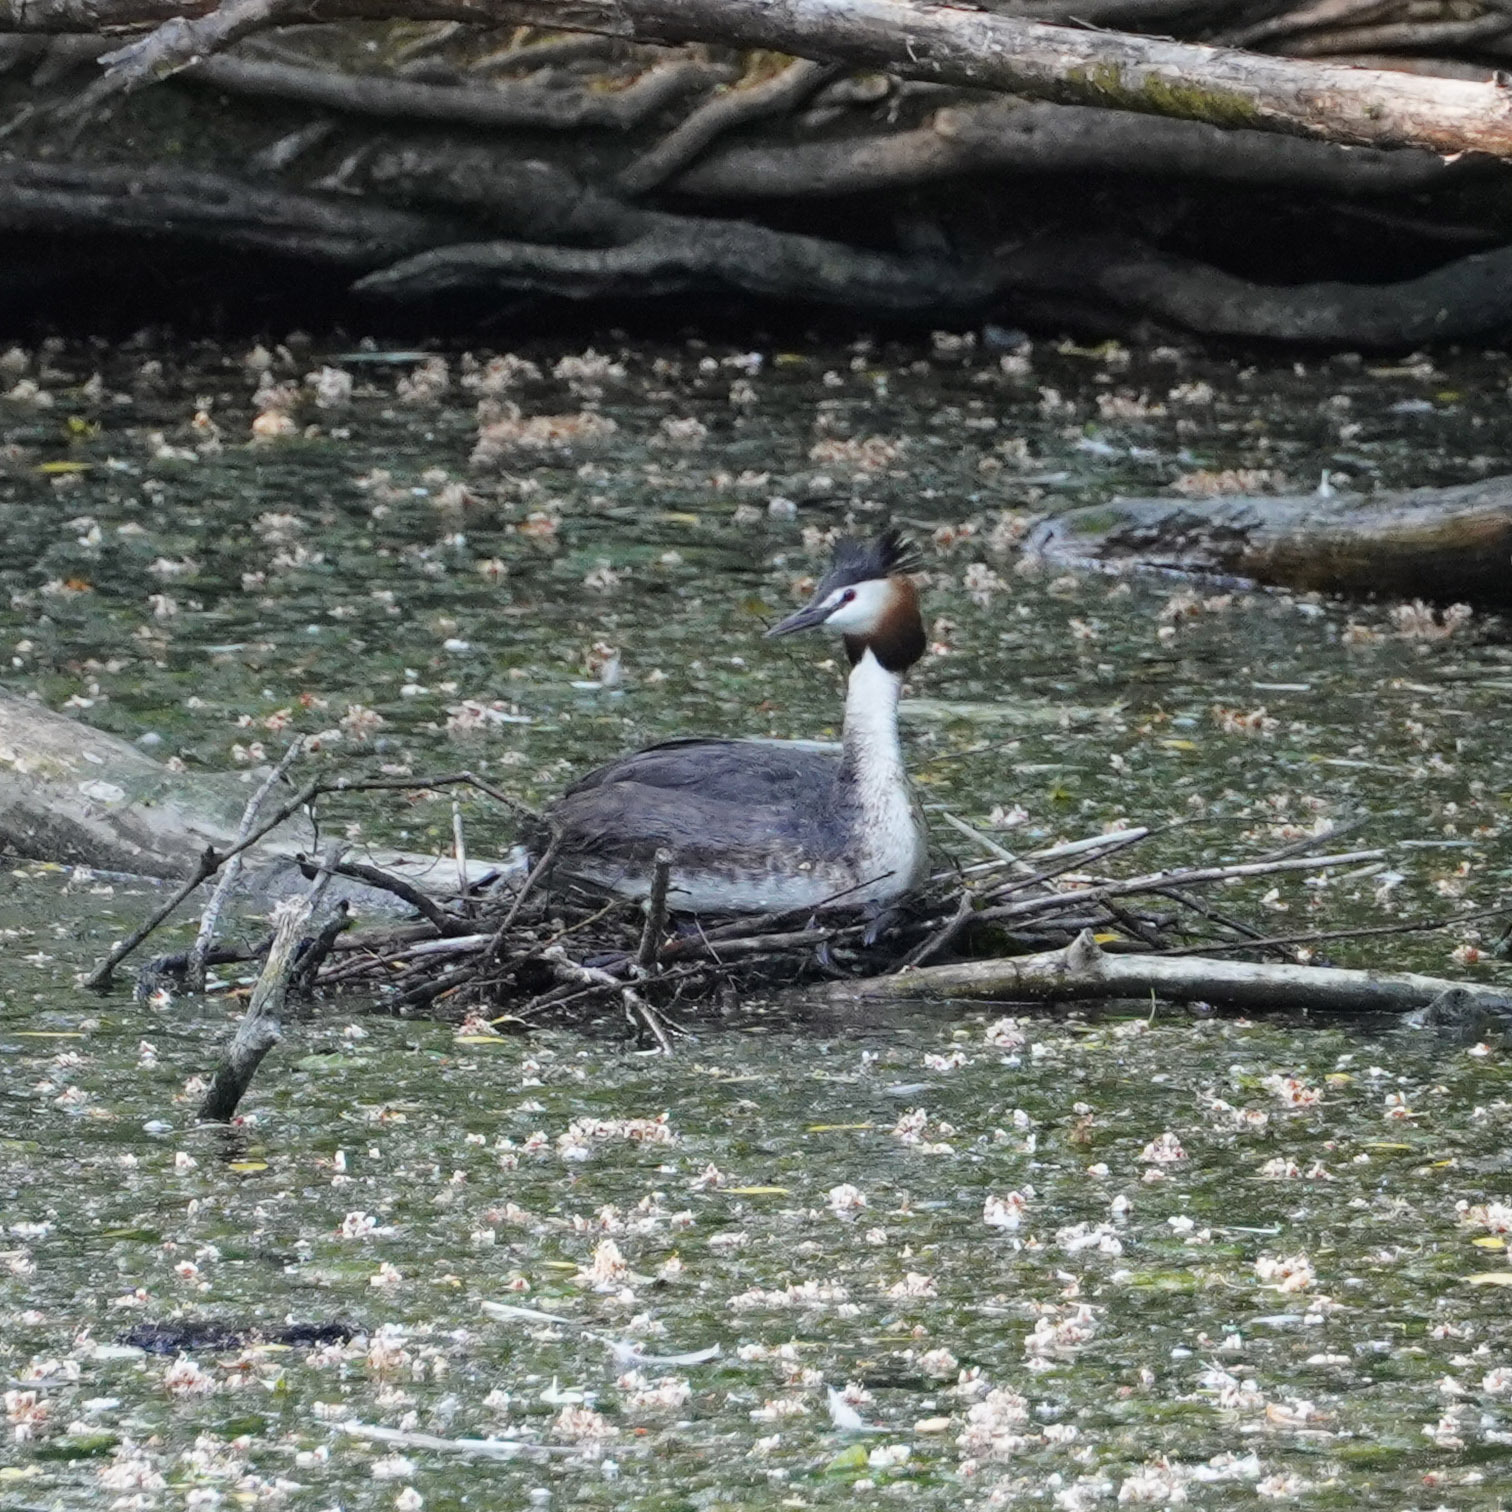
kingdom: Animalia
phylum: Chordata
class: Aves
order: Podicipediformes
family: Podicipedidae
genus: Podiceps
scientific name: Podiceps cristatus
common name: Great crested grebe
